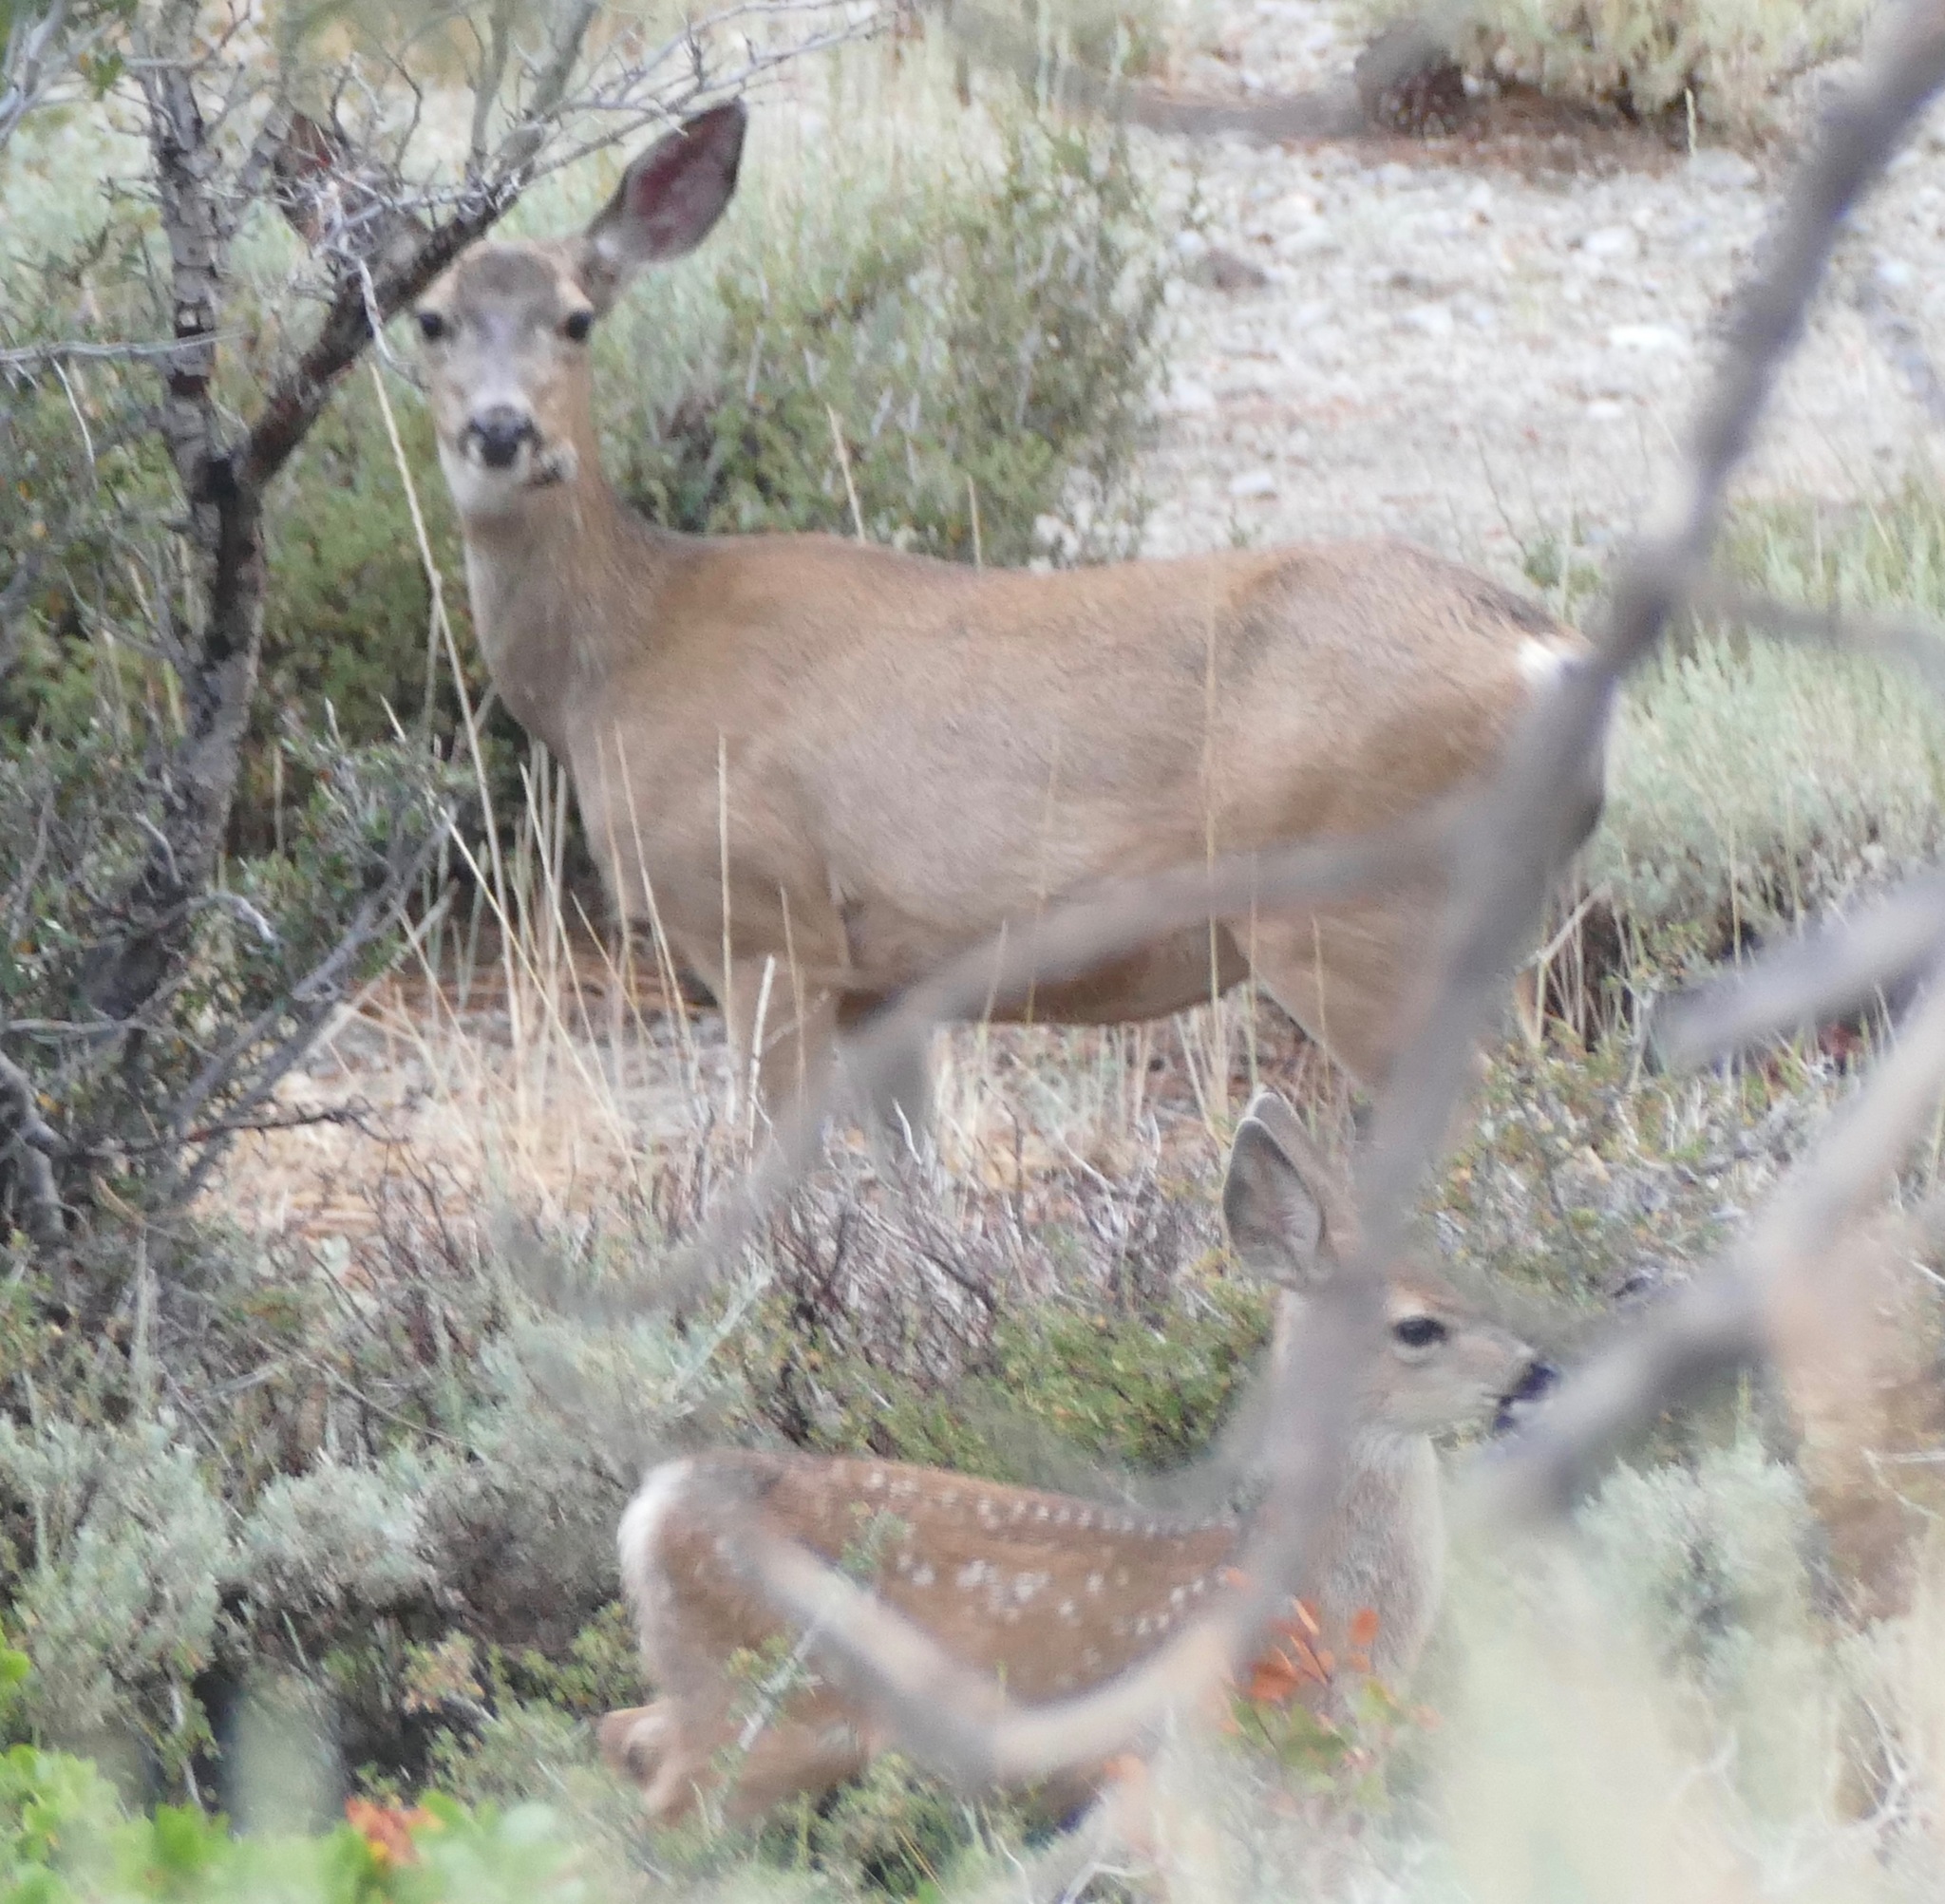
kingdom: Animalia
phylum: Chordata
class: Mammalia
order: Artiodactyla
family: Cervidae
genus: Odocoileus
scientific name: Odocoileus hemionus
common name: Mule deer
